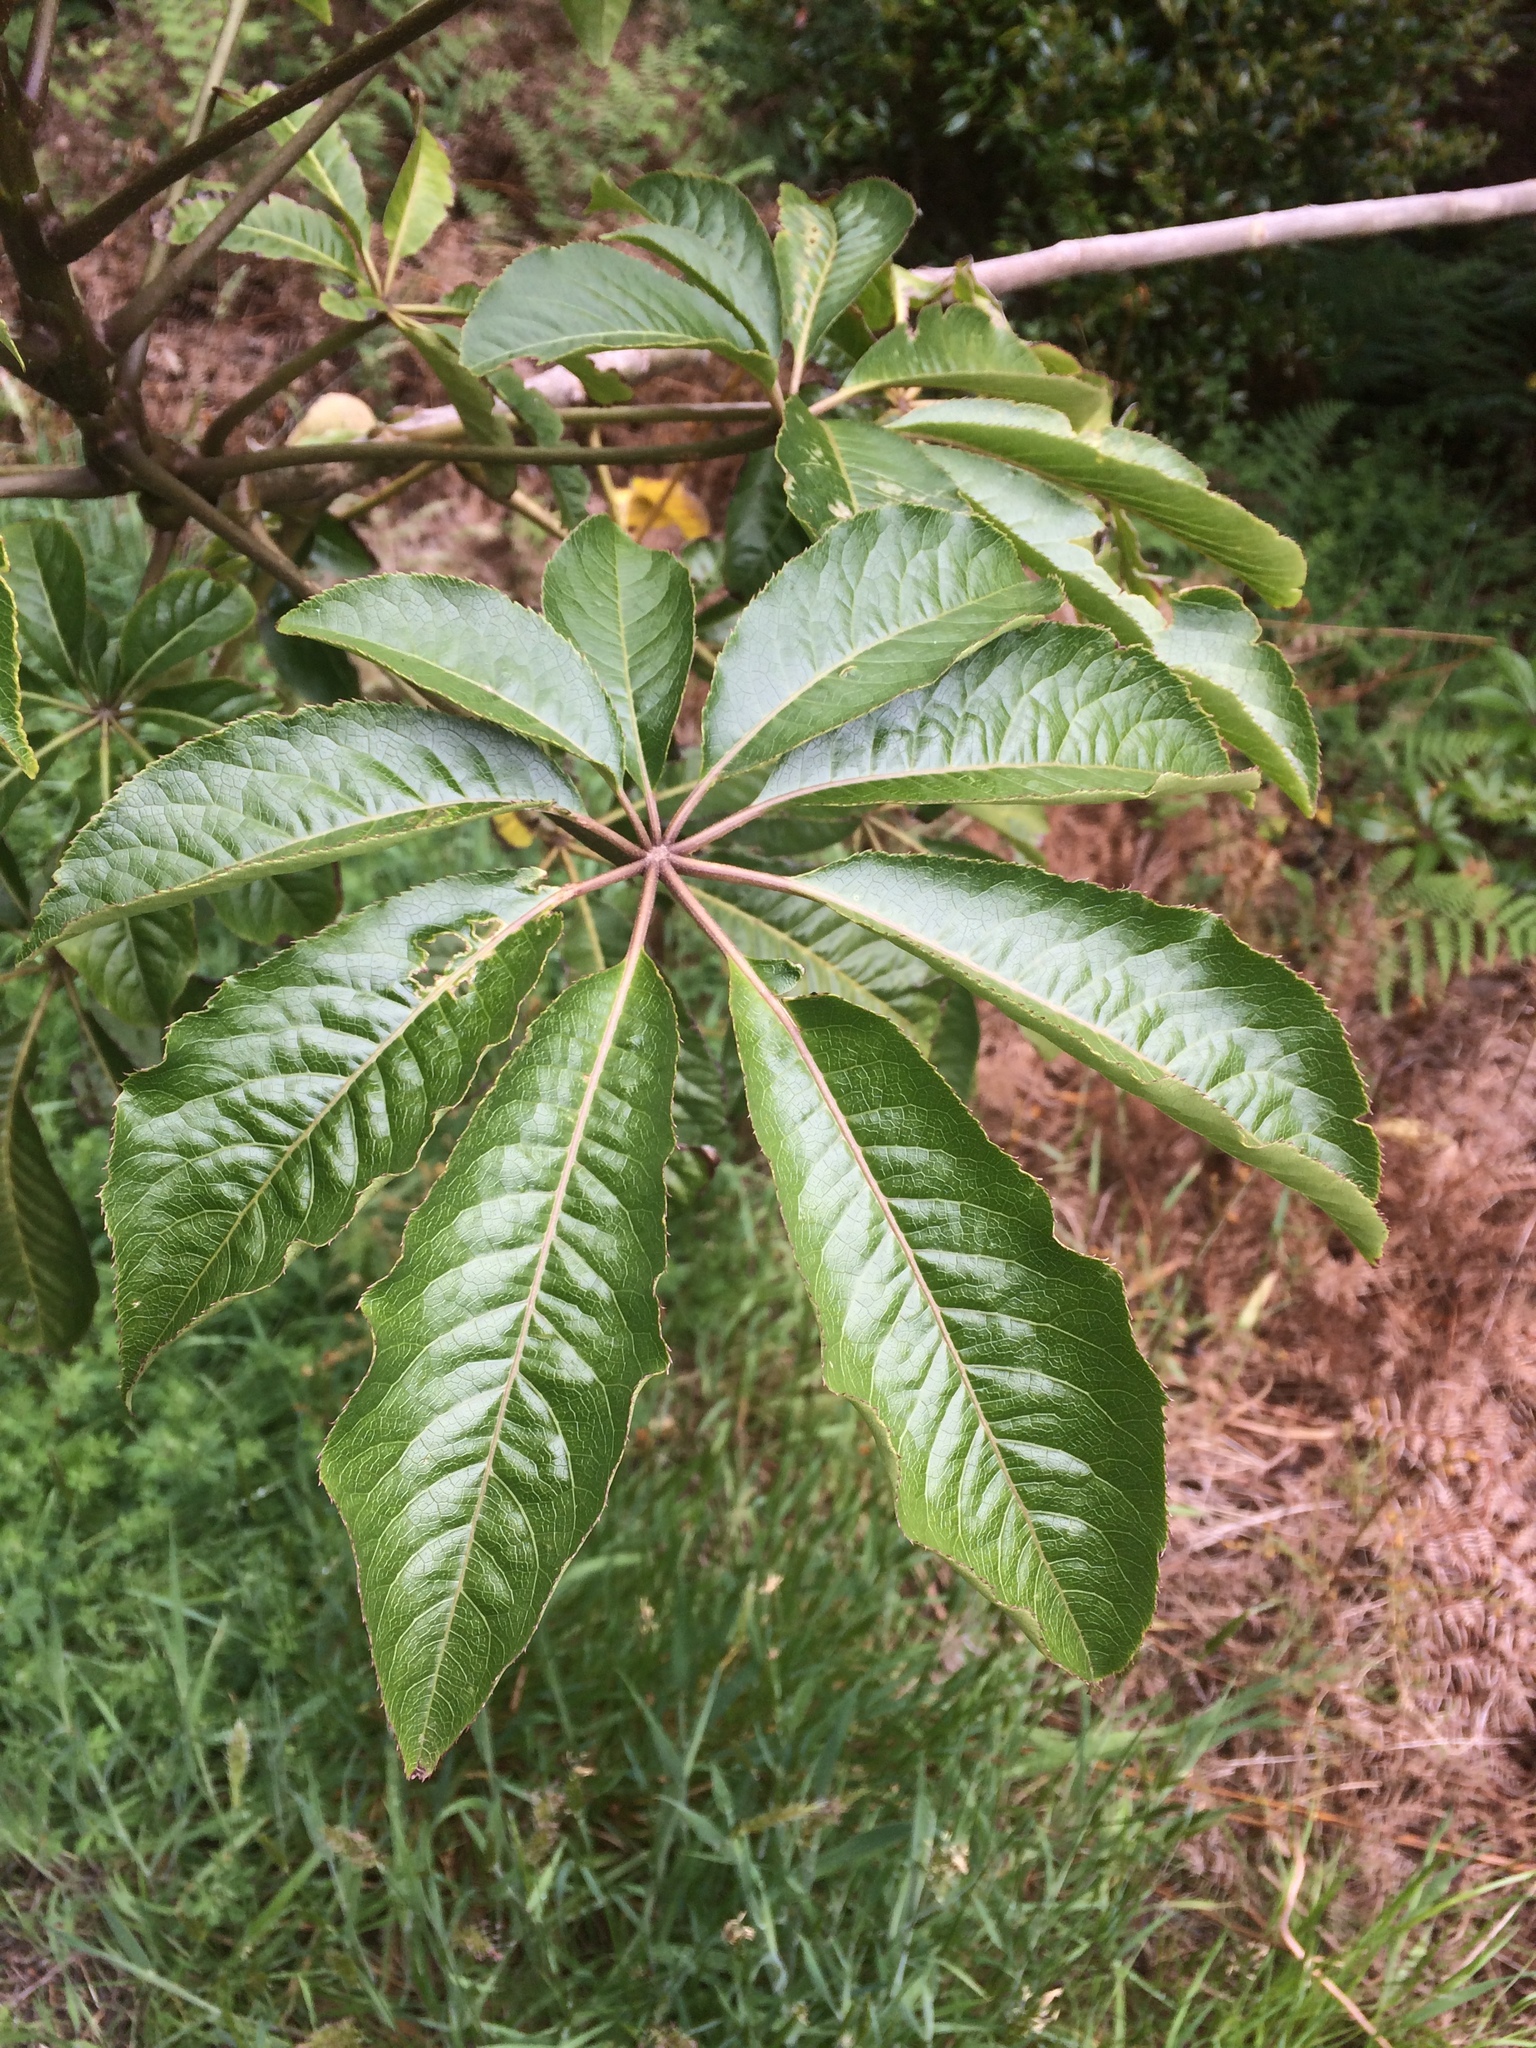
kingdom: Plantae
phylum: Tracheophyta
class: Magnoliopsida
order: Apiales
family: Araliaceae
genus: Schefflera
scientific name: Schefflera digitata
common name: Pate
